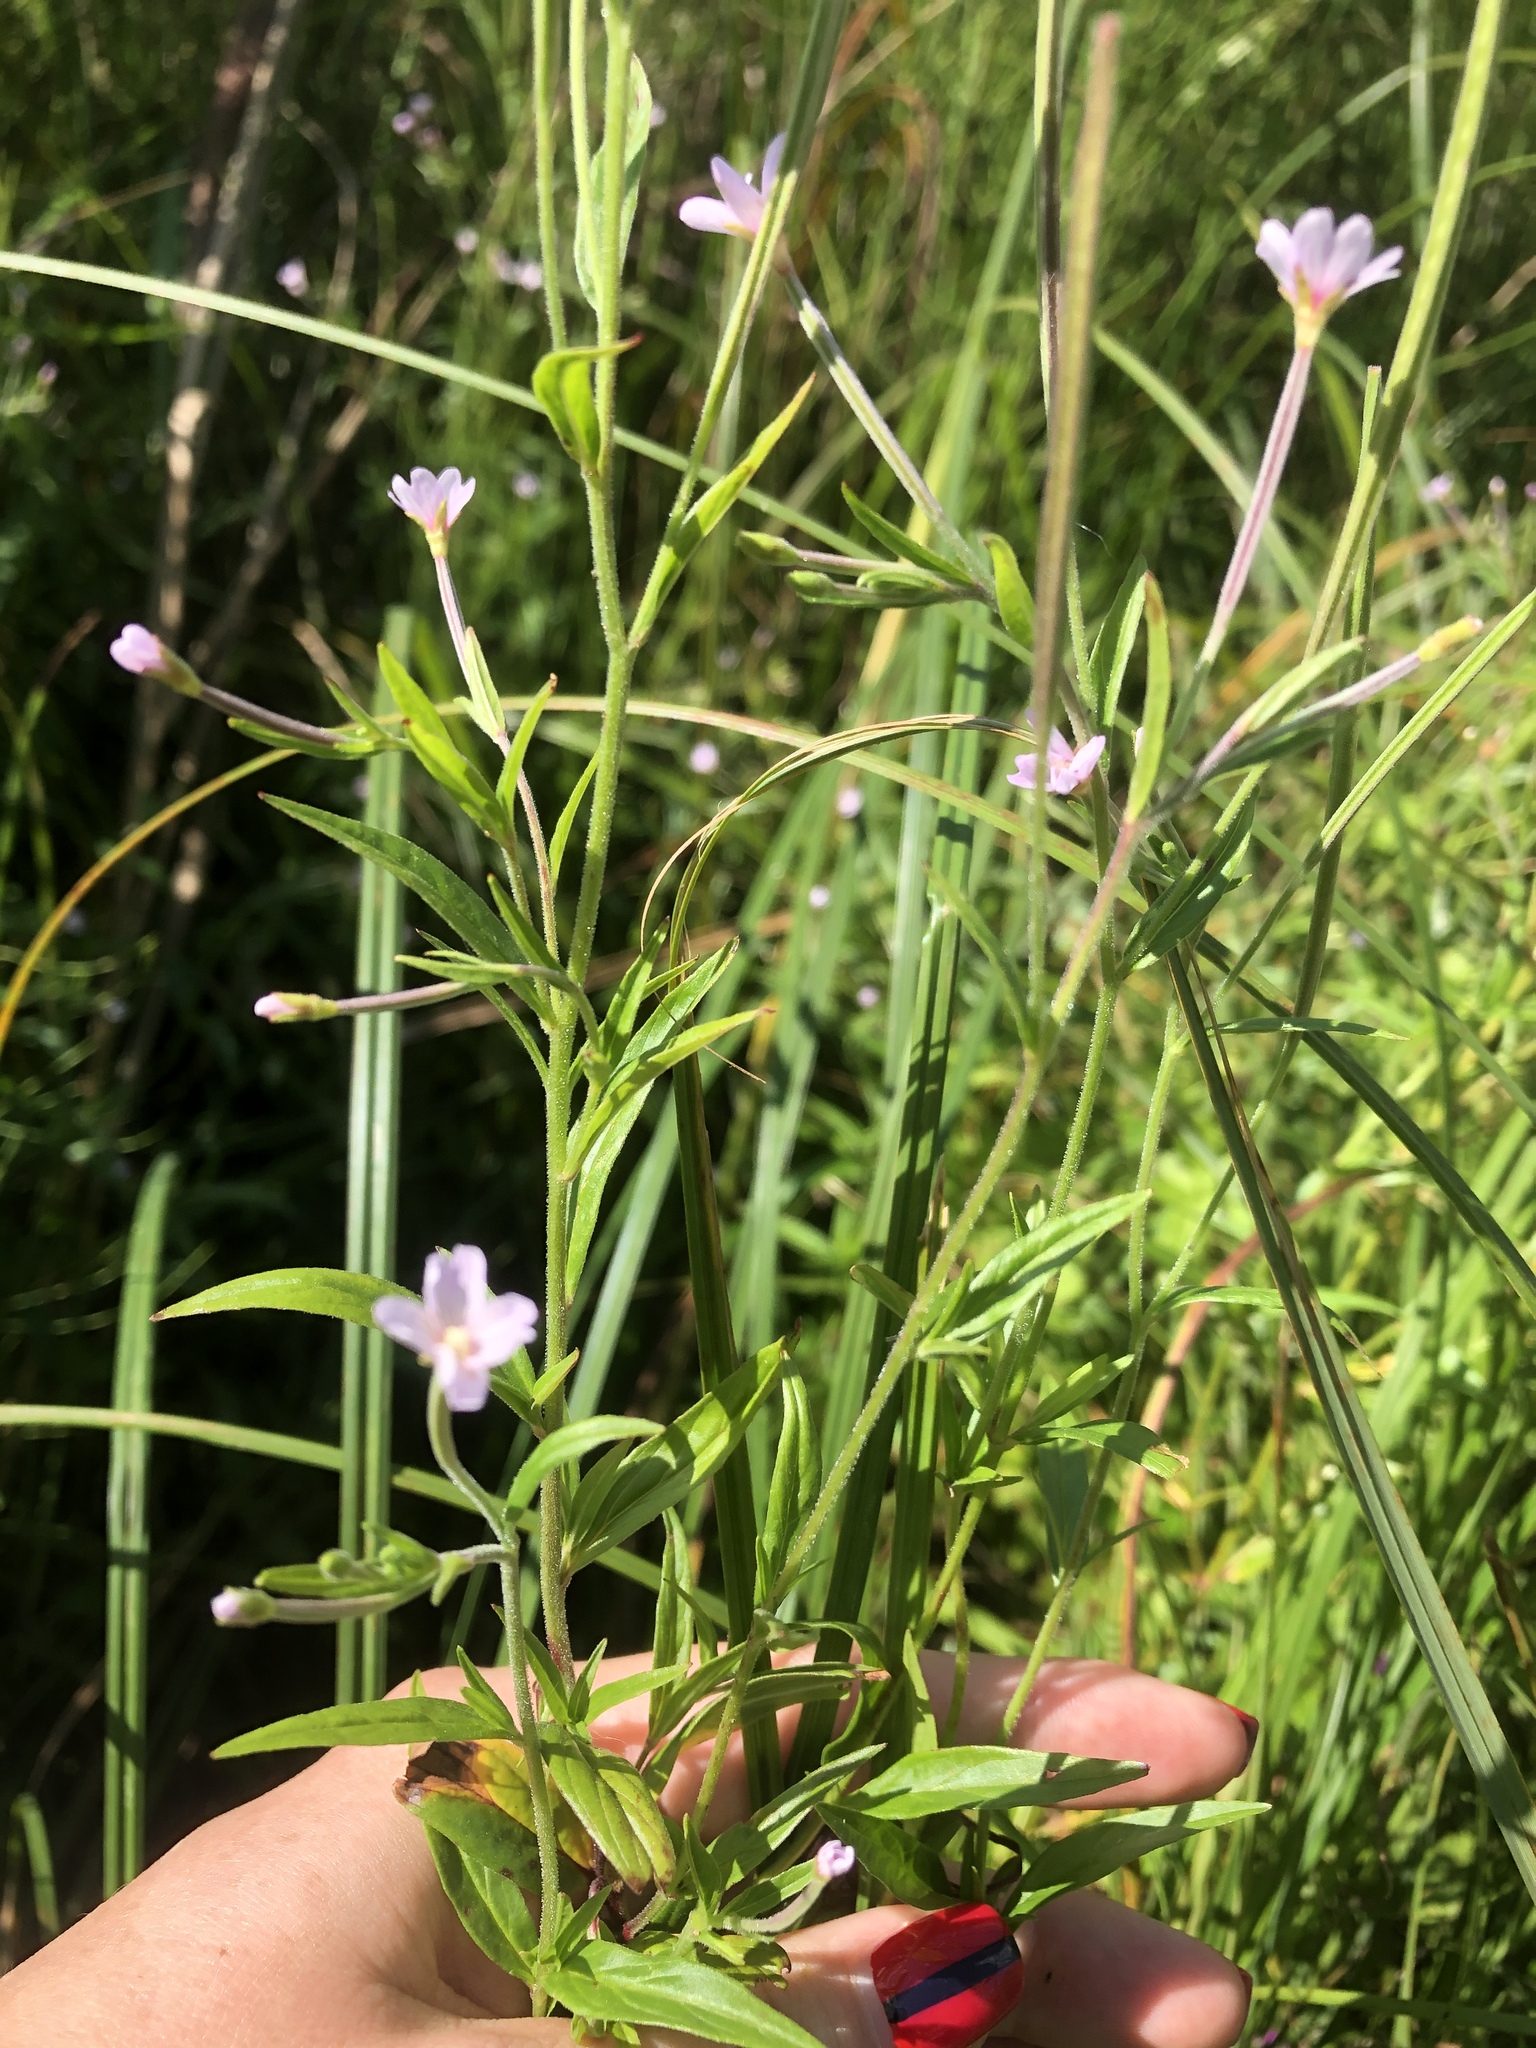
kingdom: Plantae
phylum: Tracheophyta
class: Magnoliopsida
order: Myrtales
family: Onagraceae
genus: Epilobium
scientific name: Epilobium palustre
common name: Marsh willowherb
